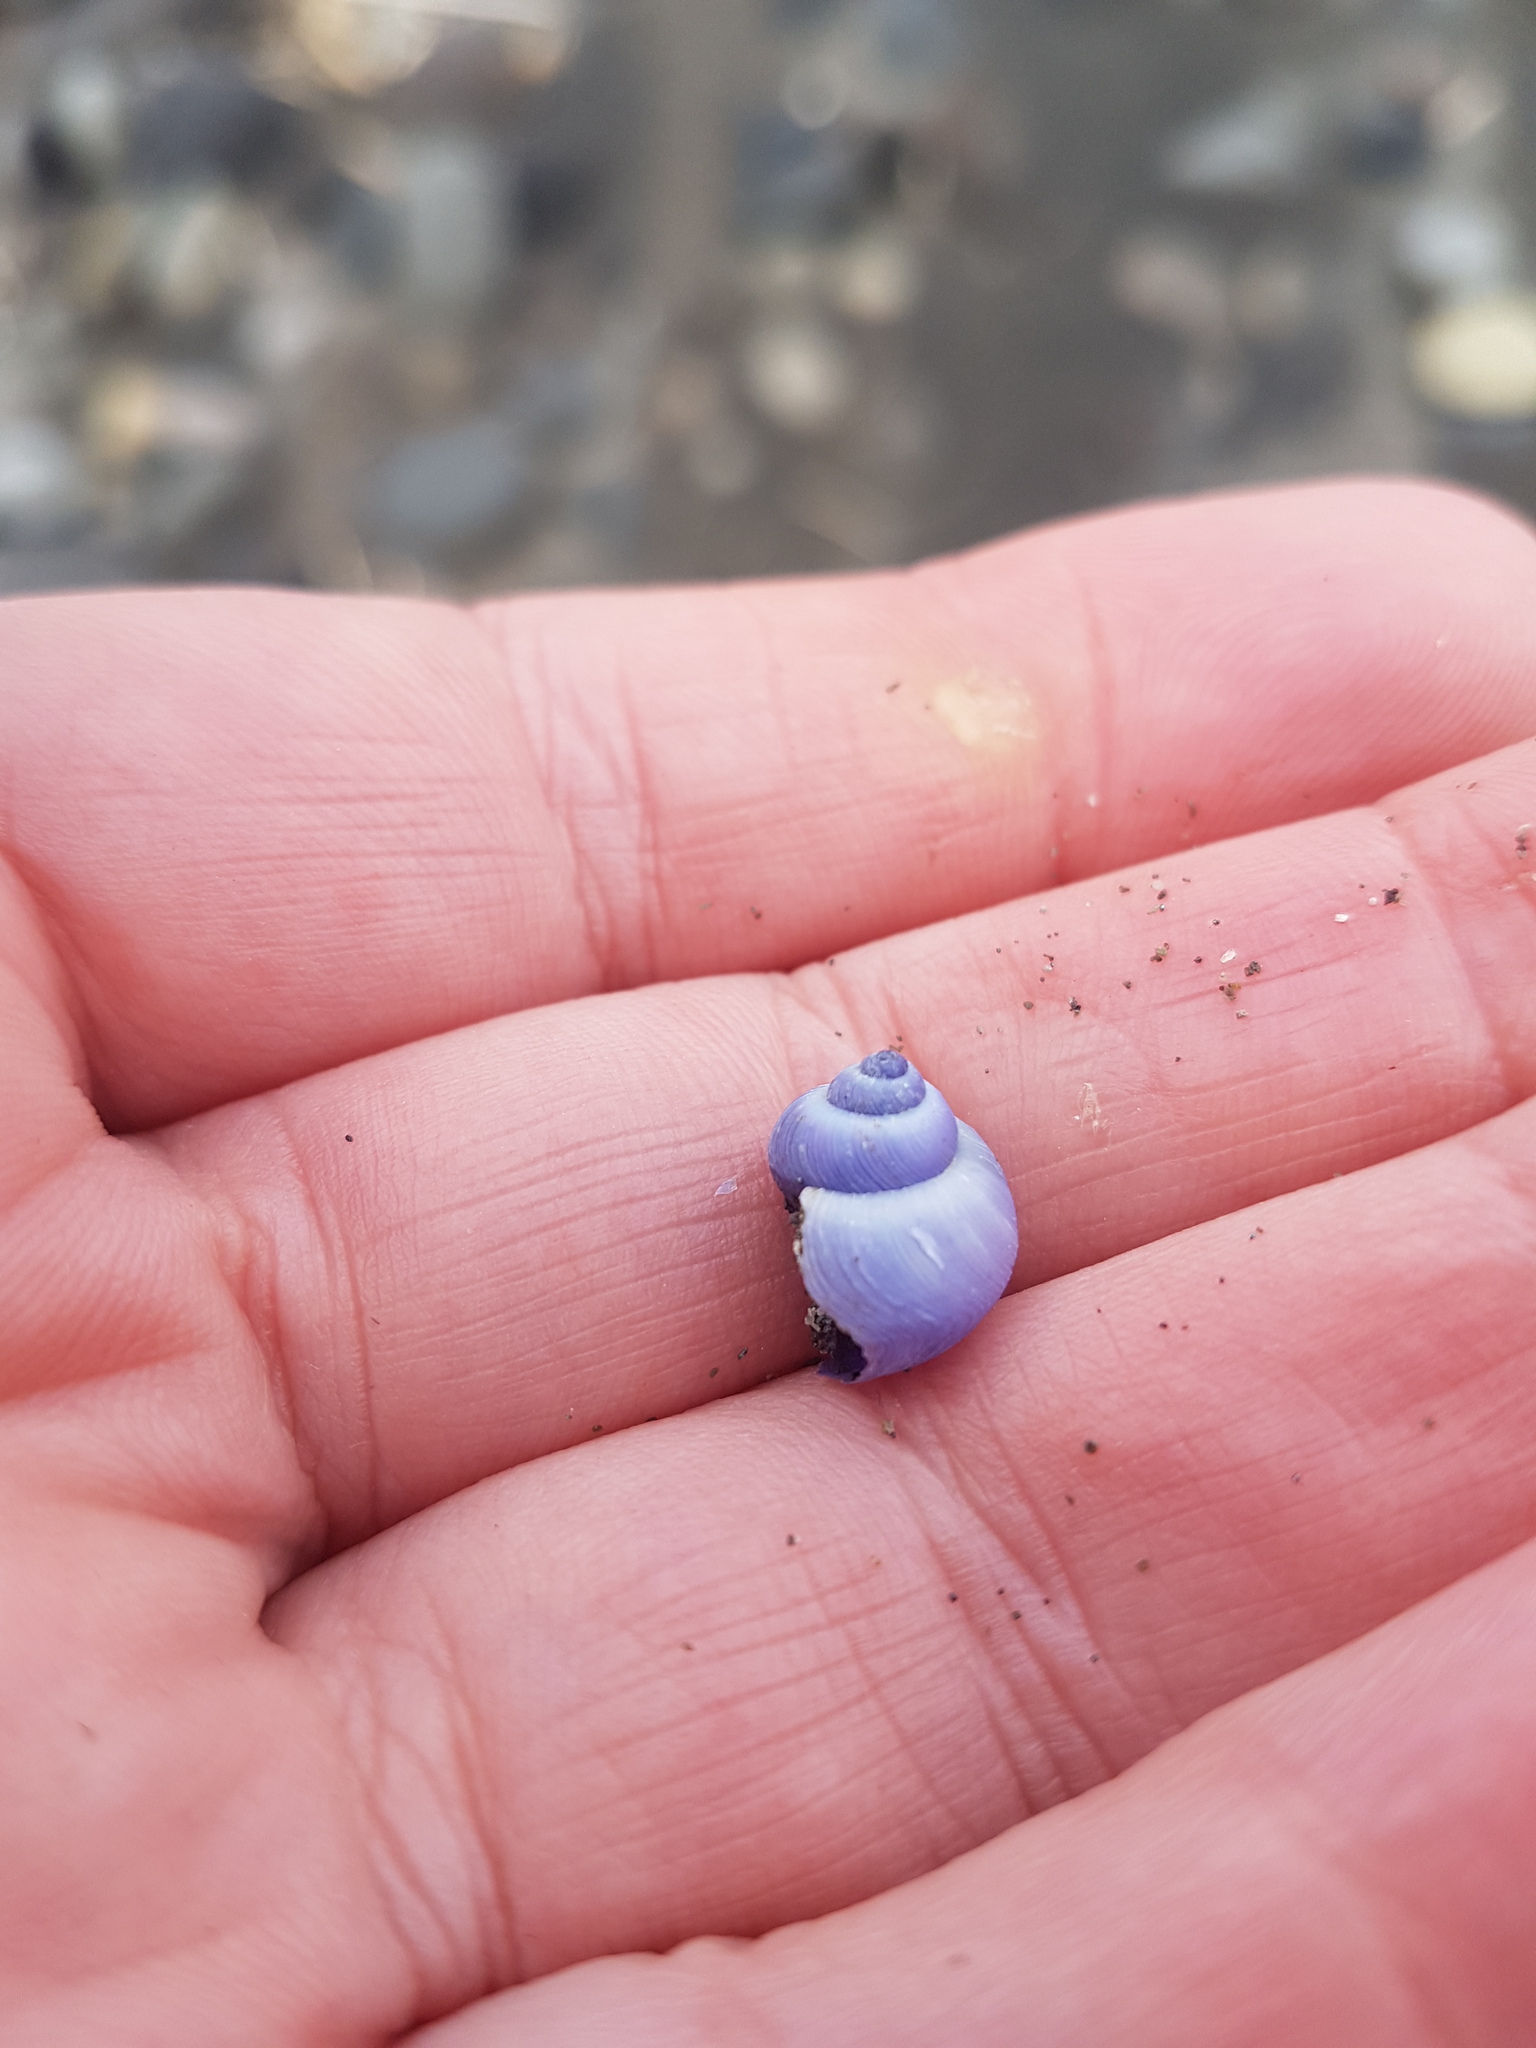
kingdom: Animalia
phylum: Mollusca
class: Gastropoda
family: Epitoniidae
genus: Janthina
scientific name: Janthina exigua
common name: Dwarf janthina
